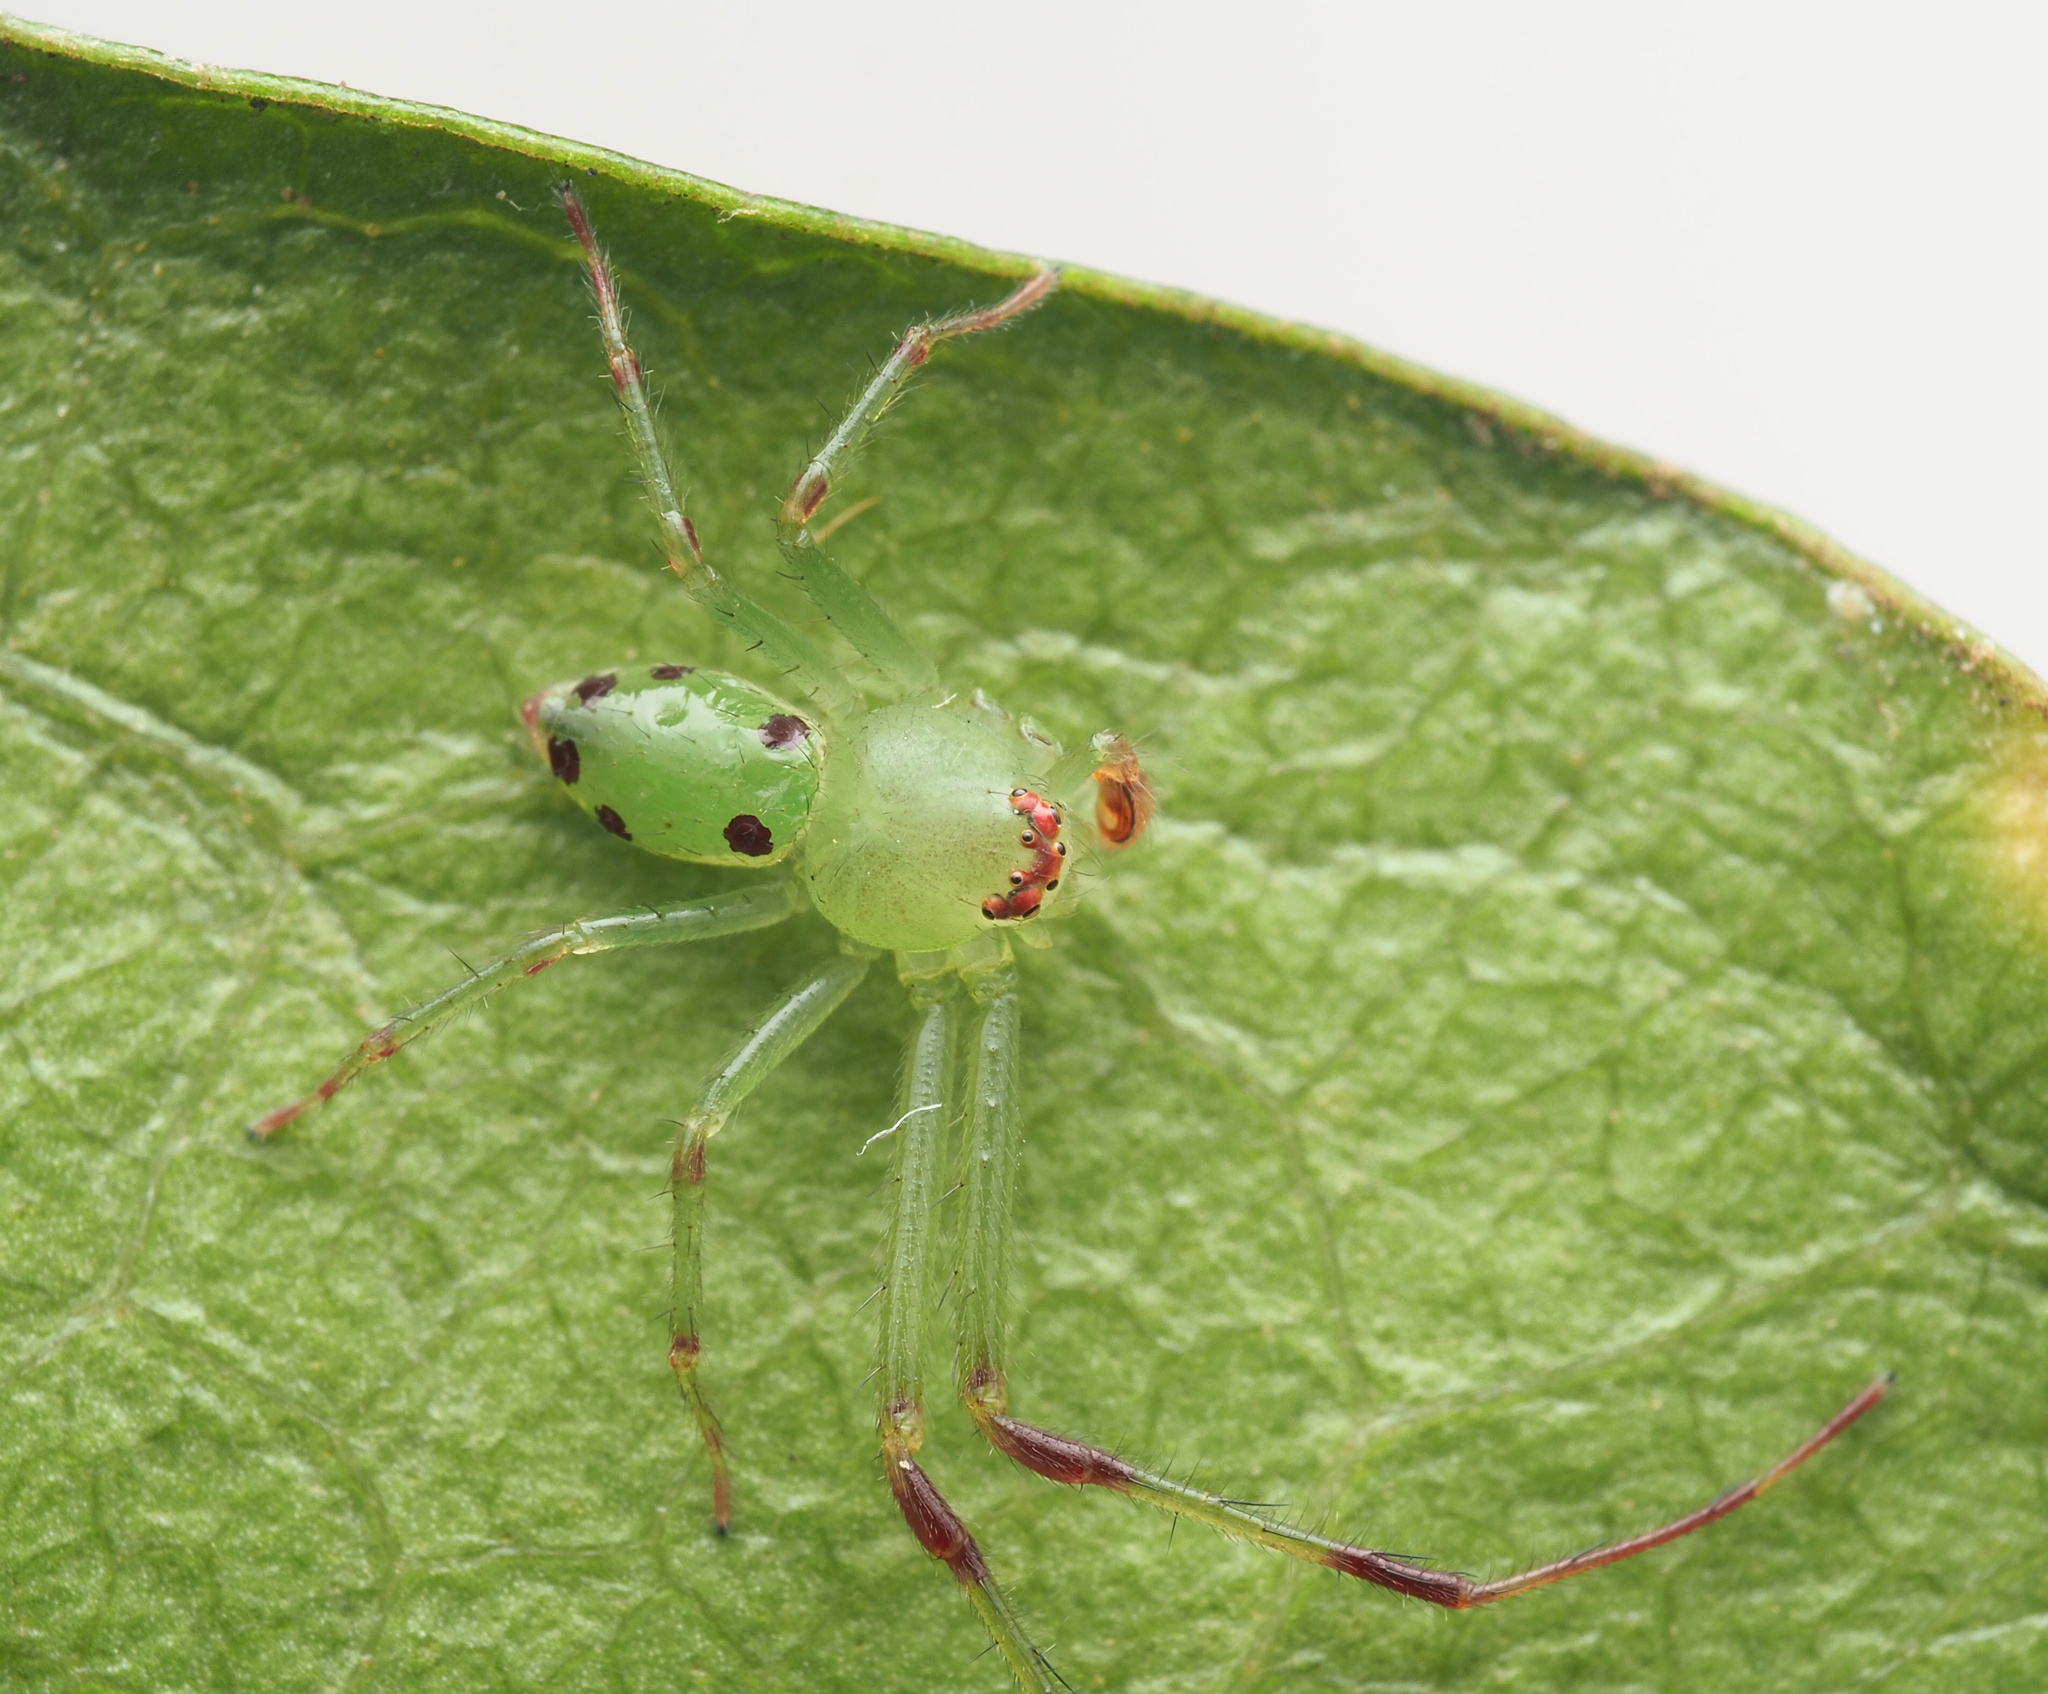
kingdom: Animalia
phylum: Arthropoda
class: Arachnida
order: Araneae
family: Thomisidae
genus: Australomisidia
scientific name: Australomisidia
